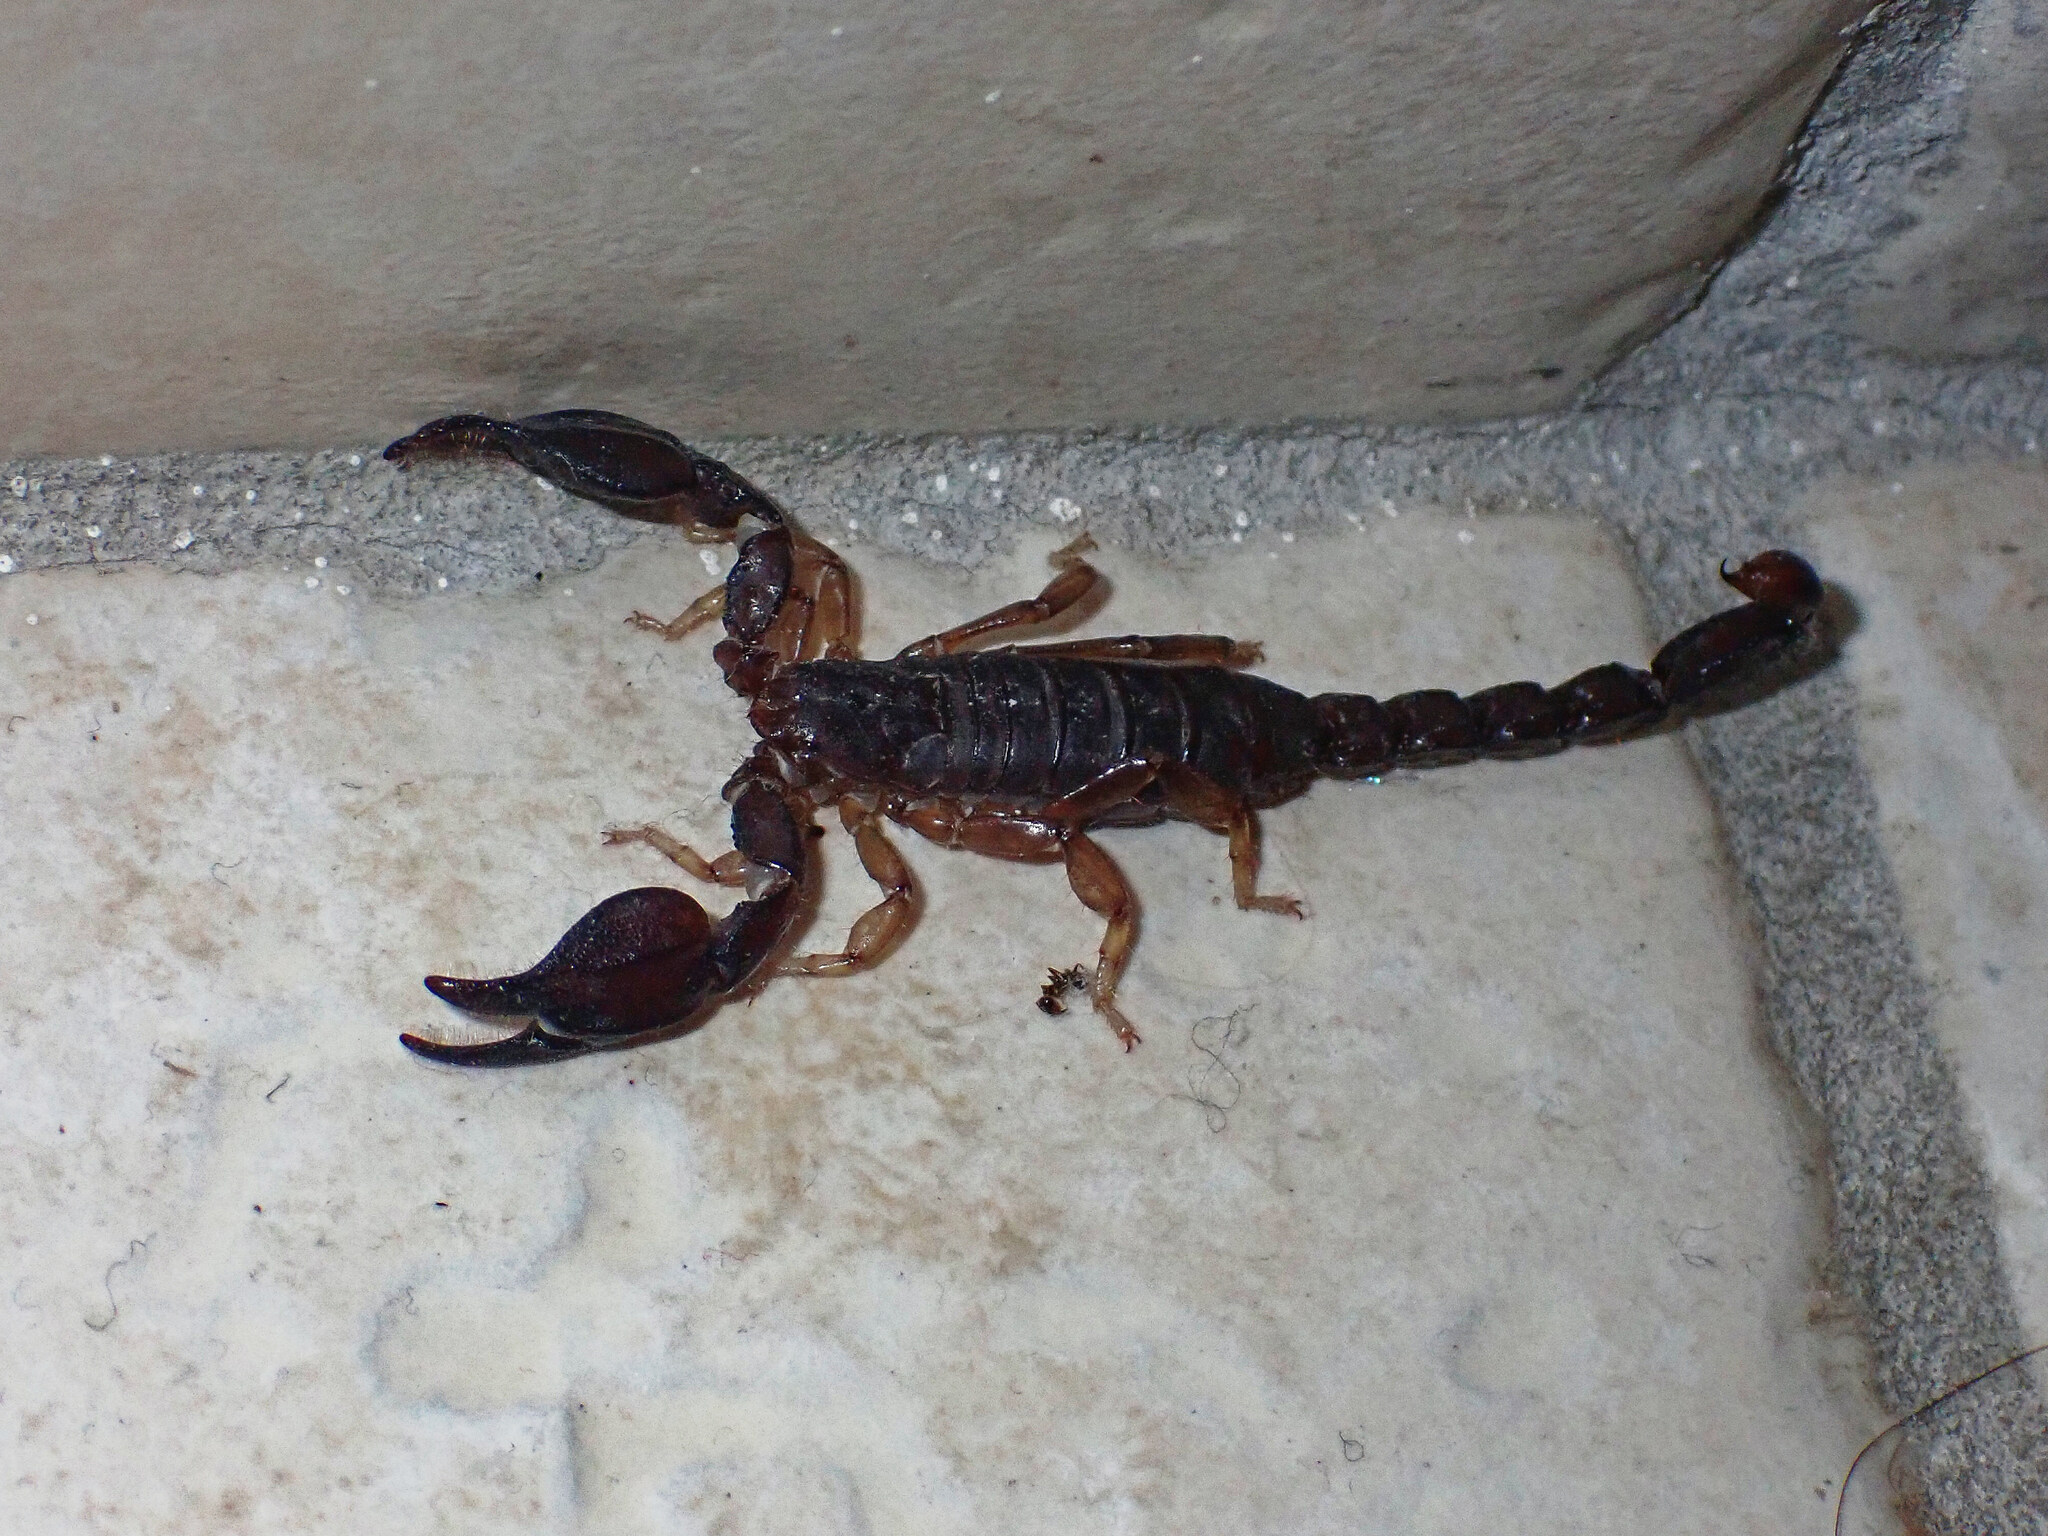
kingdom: Animalia
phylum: Arthropoda
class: Arachnida
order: Scorpiones
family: Diplocentridae
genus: Didymocentrus
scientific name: Didymocentrus martinicae
